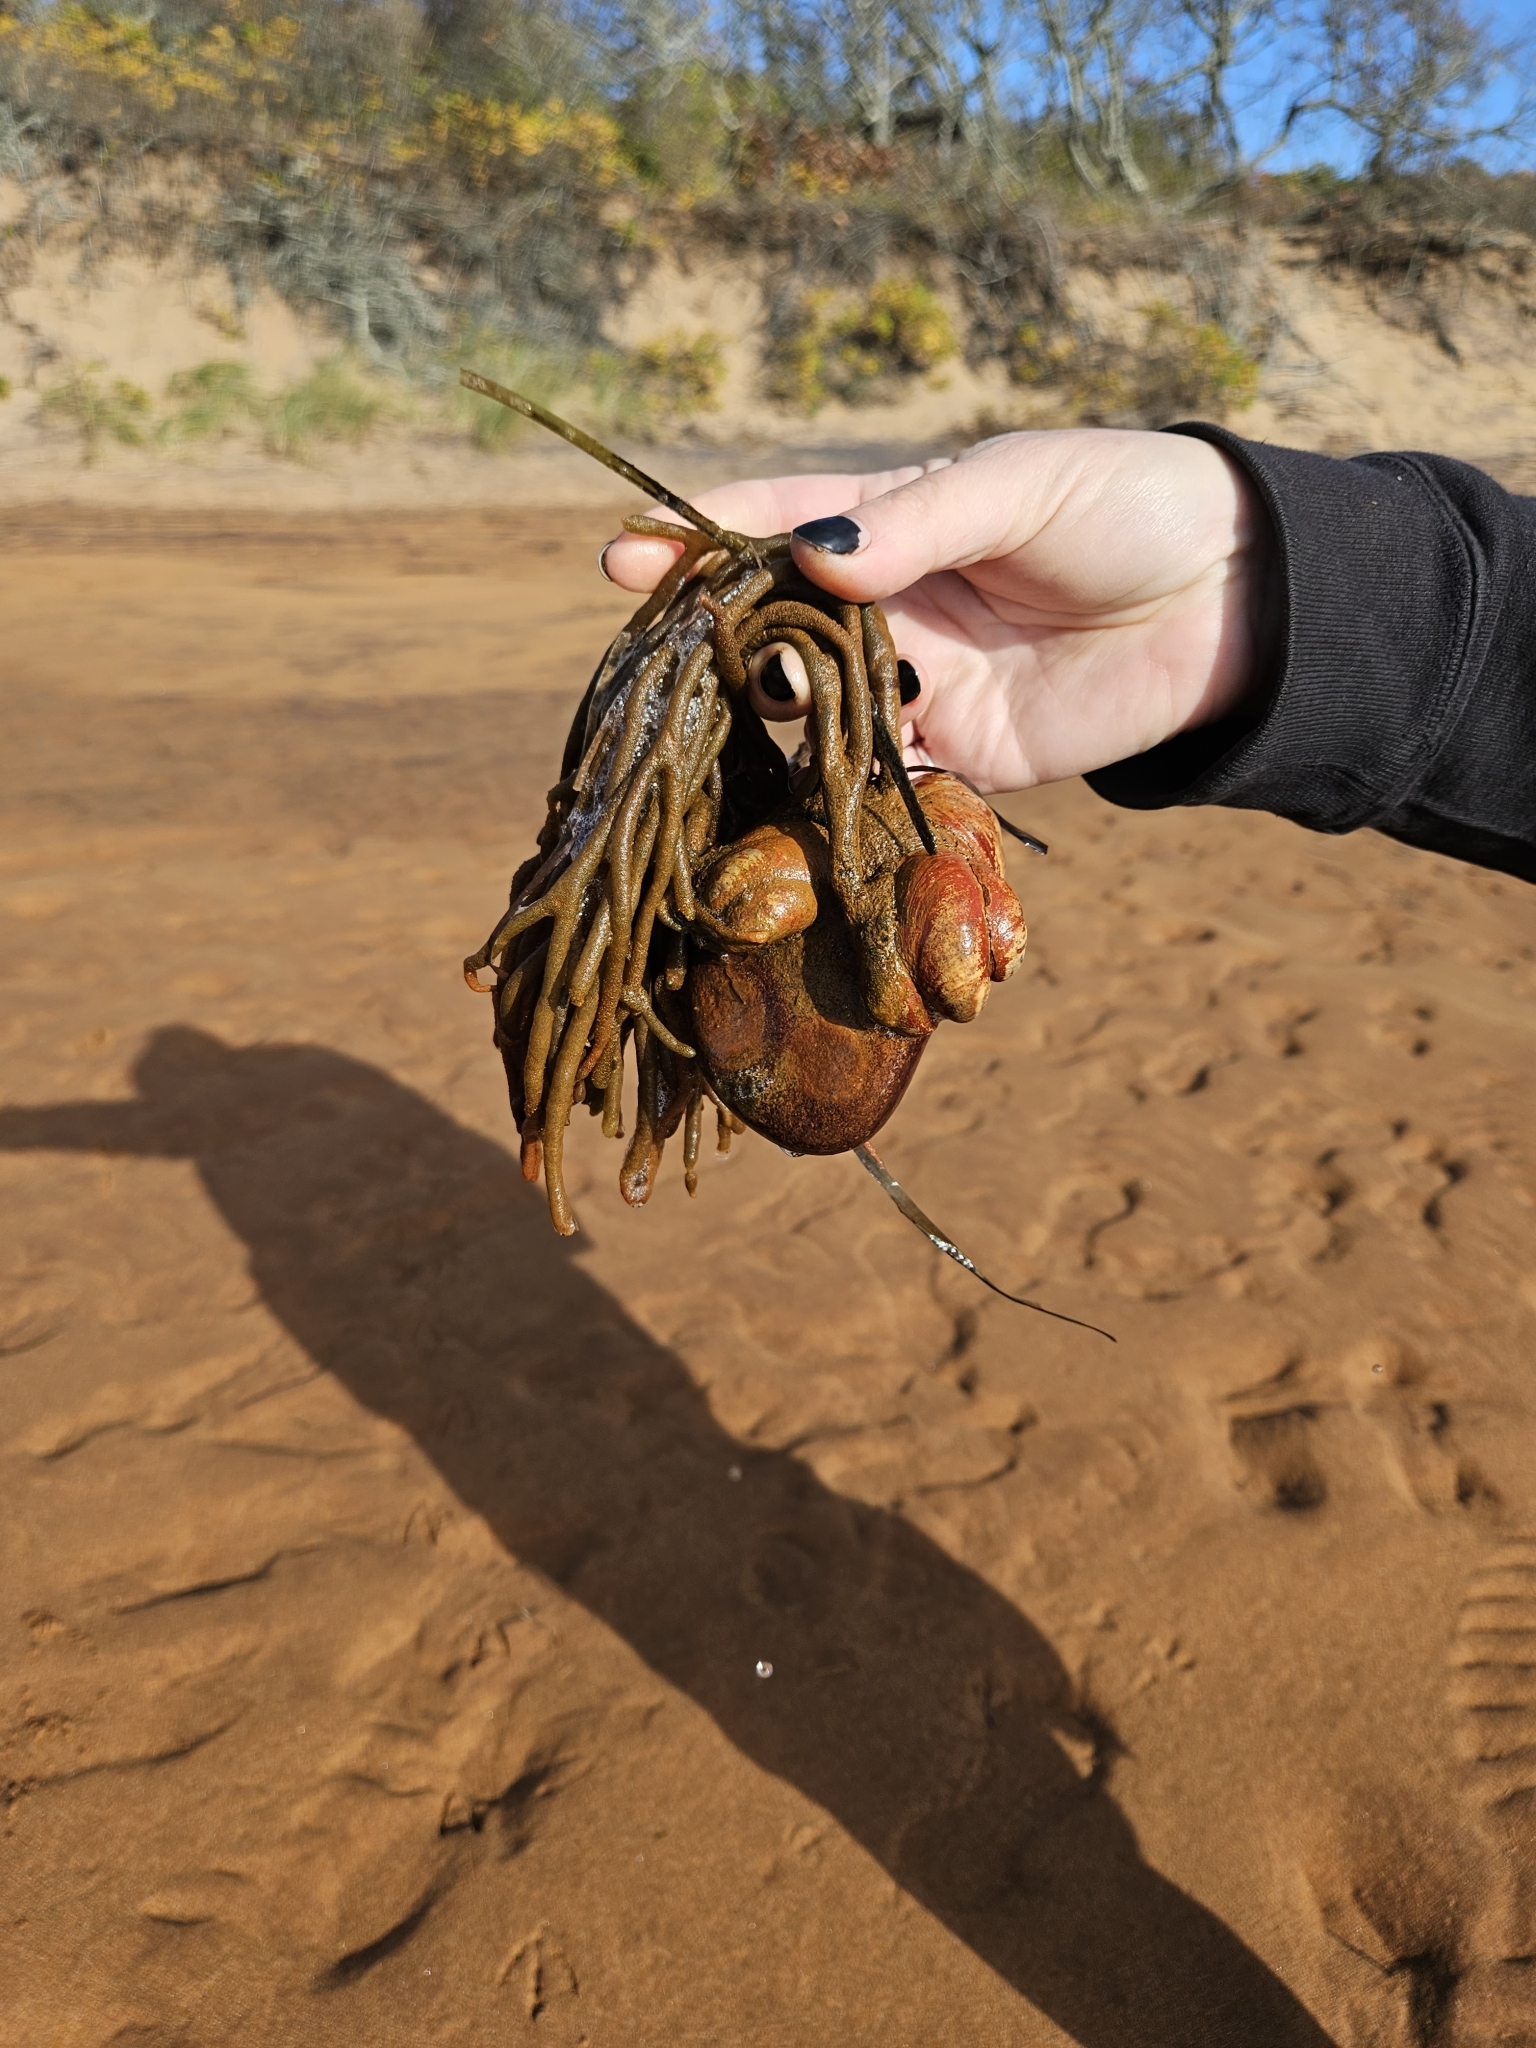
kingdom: Animalia
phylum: Mollusca
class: Gastropoda
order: Littorinimorpha
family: Calyptraeidae
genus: Crepidula
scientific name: Crepidula fornicata
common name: Slipper limpet
